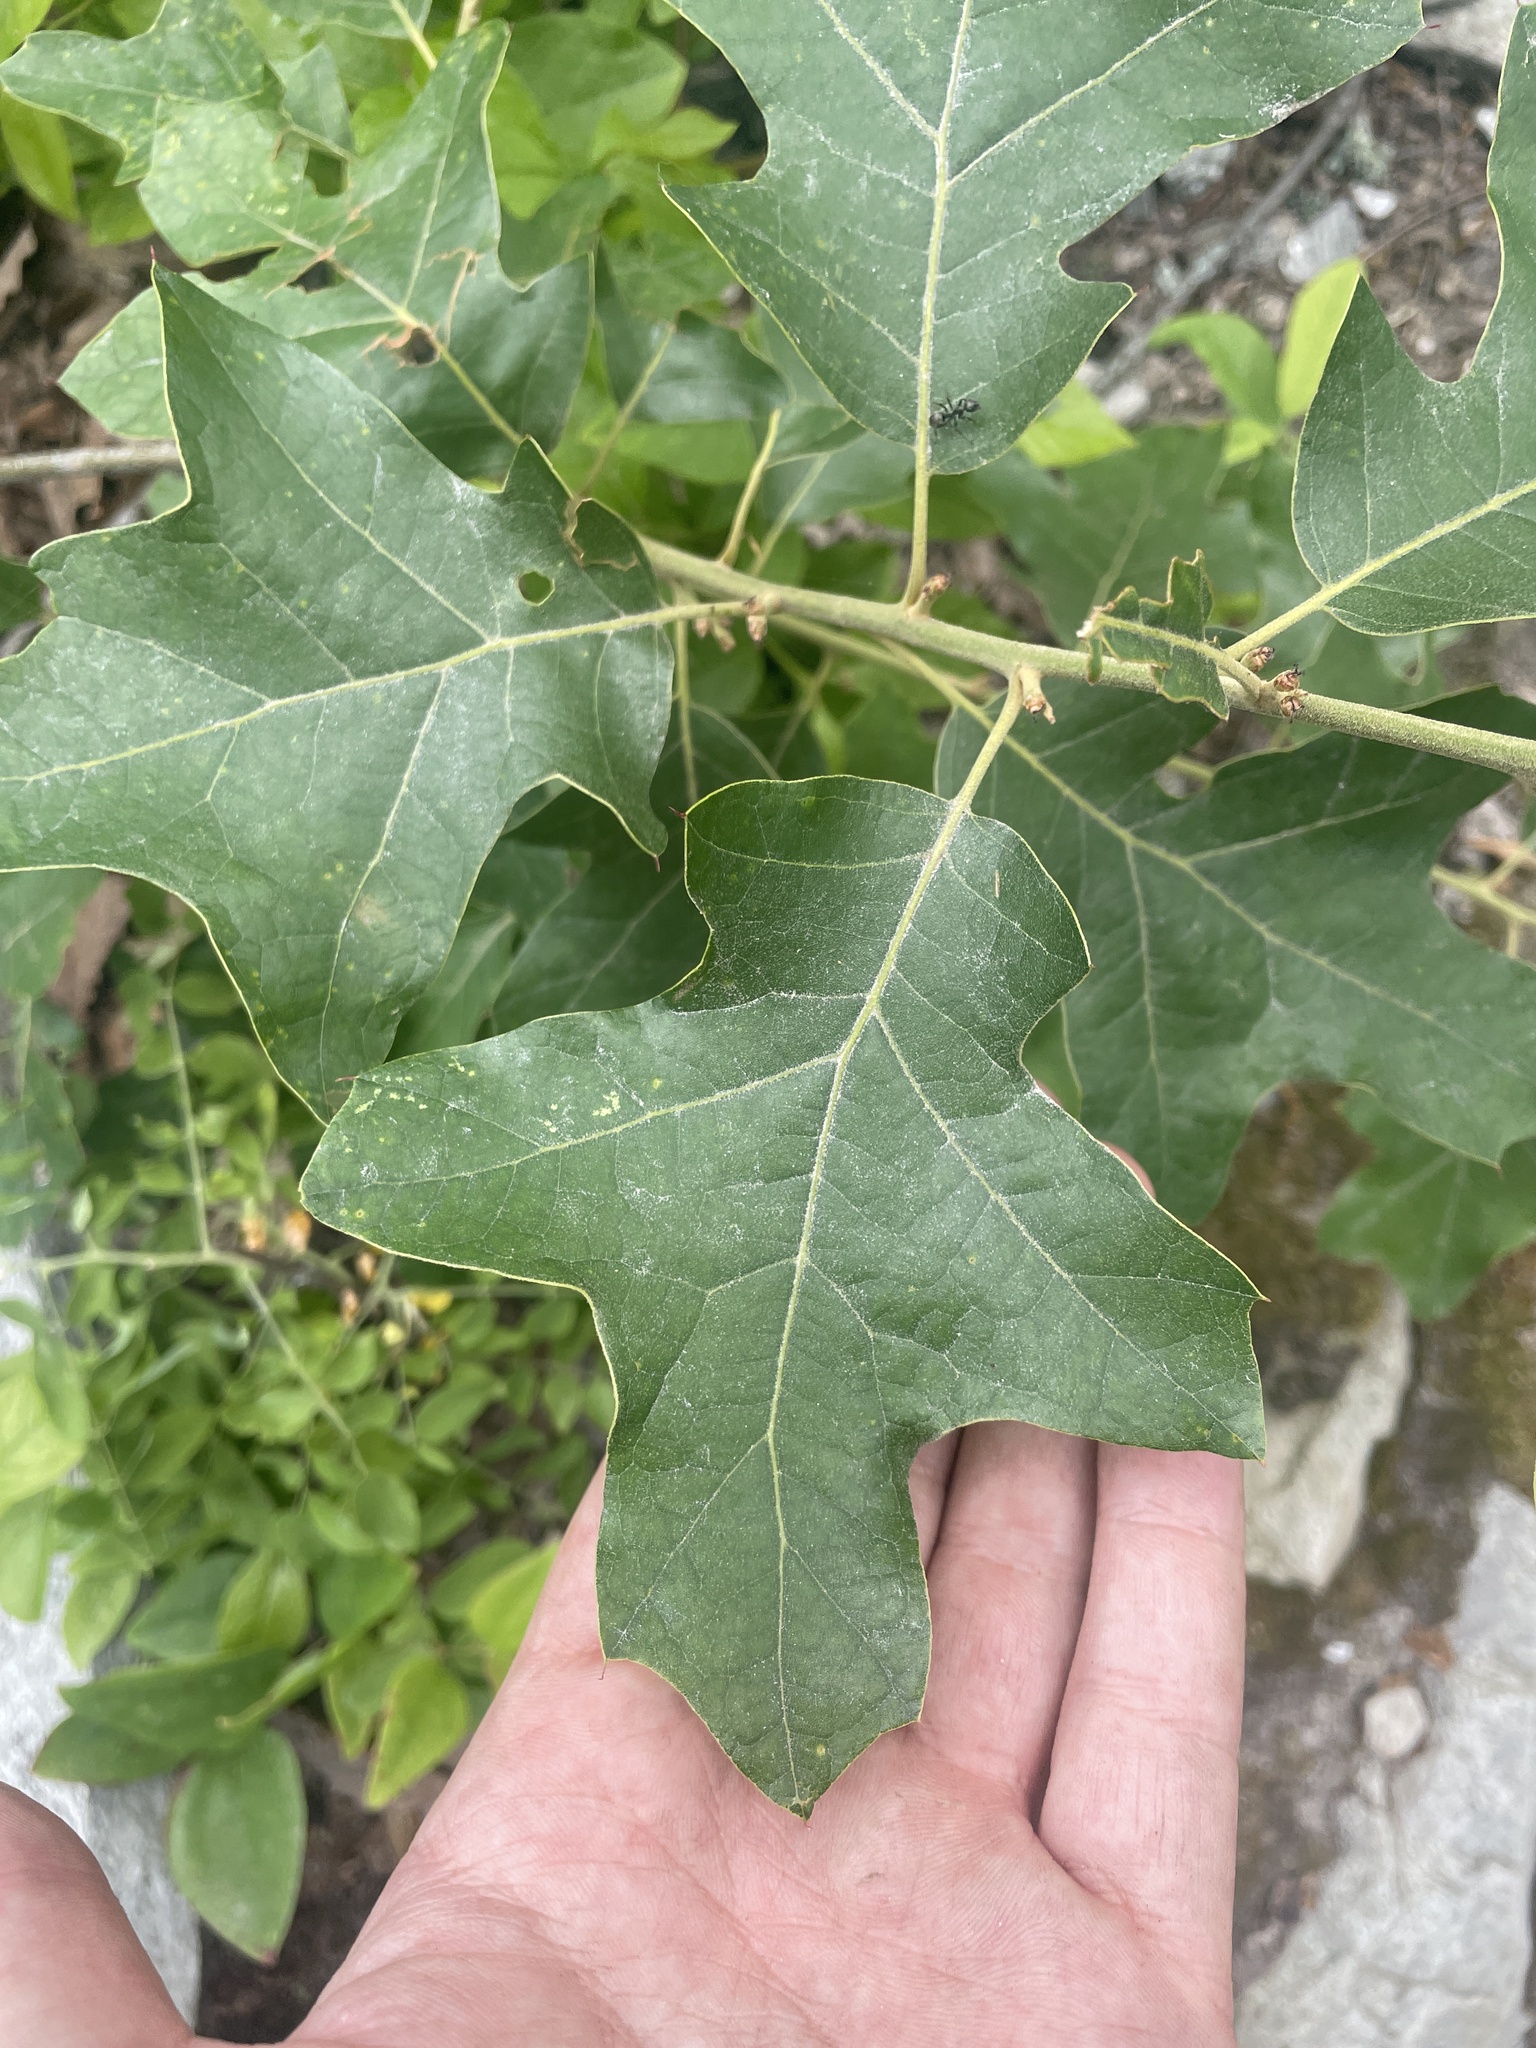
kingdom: Plantae
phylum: Tracheophyta
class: Magnoliopsida
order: Fagales
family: Fagaceae
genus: Quercus
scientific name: Quercus ilicifolia
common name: Bear oak
